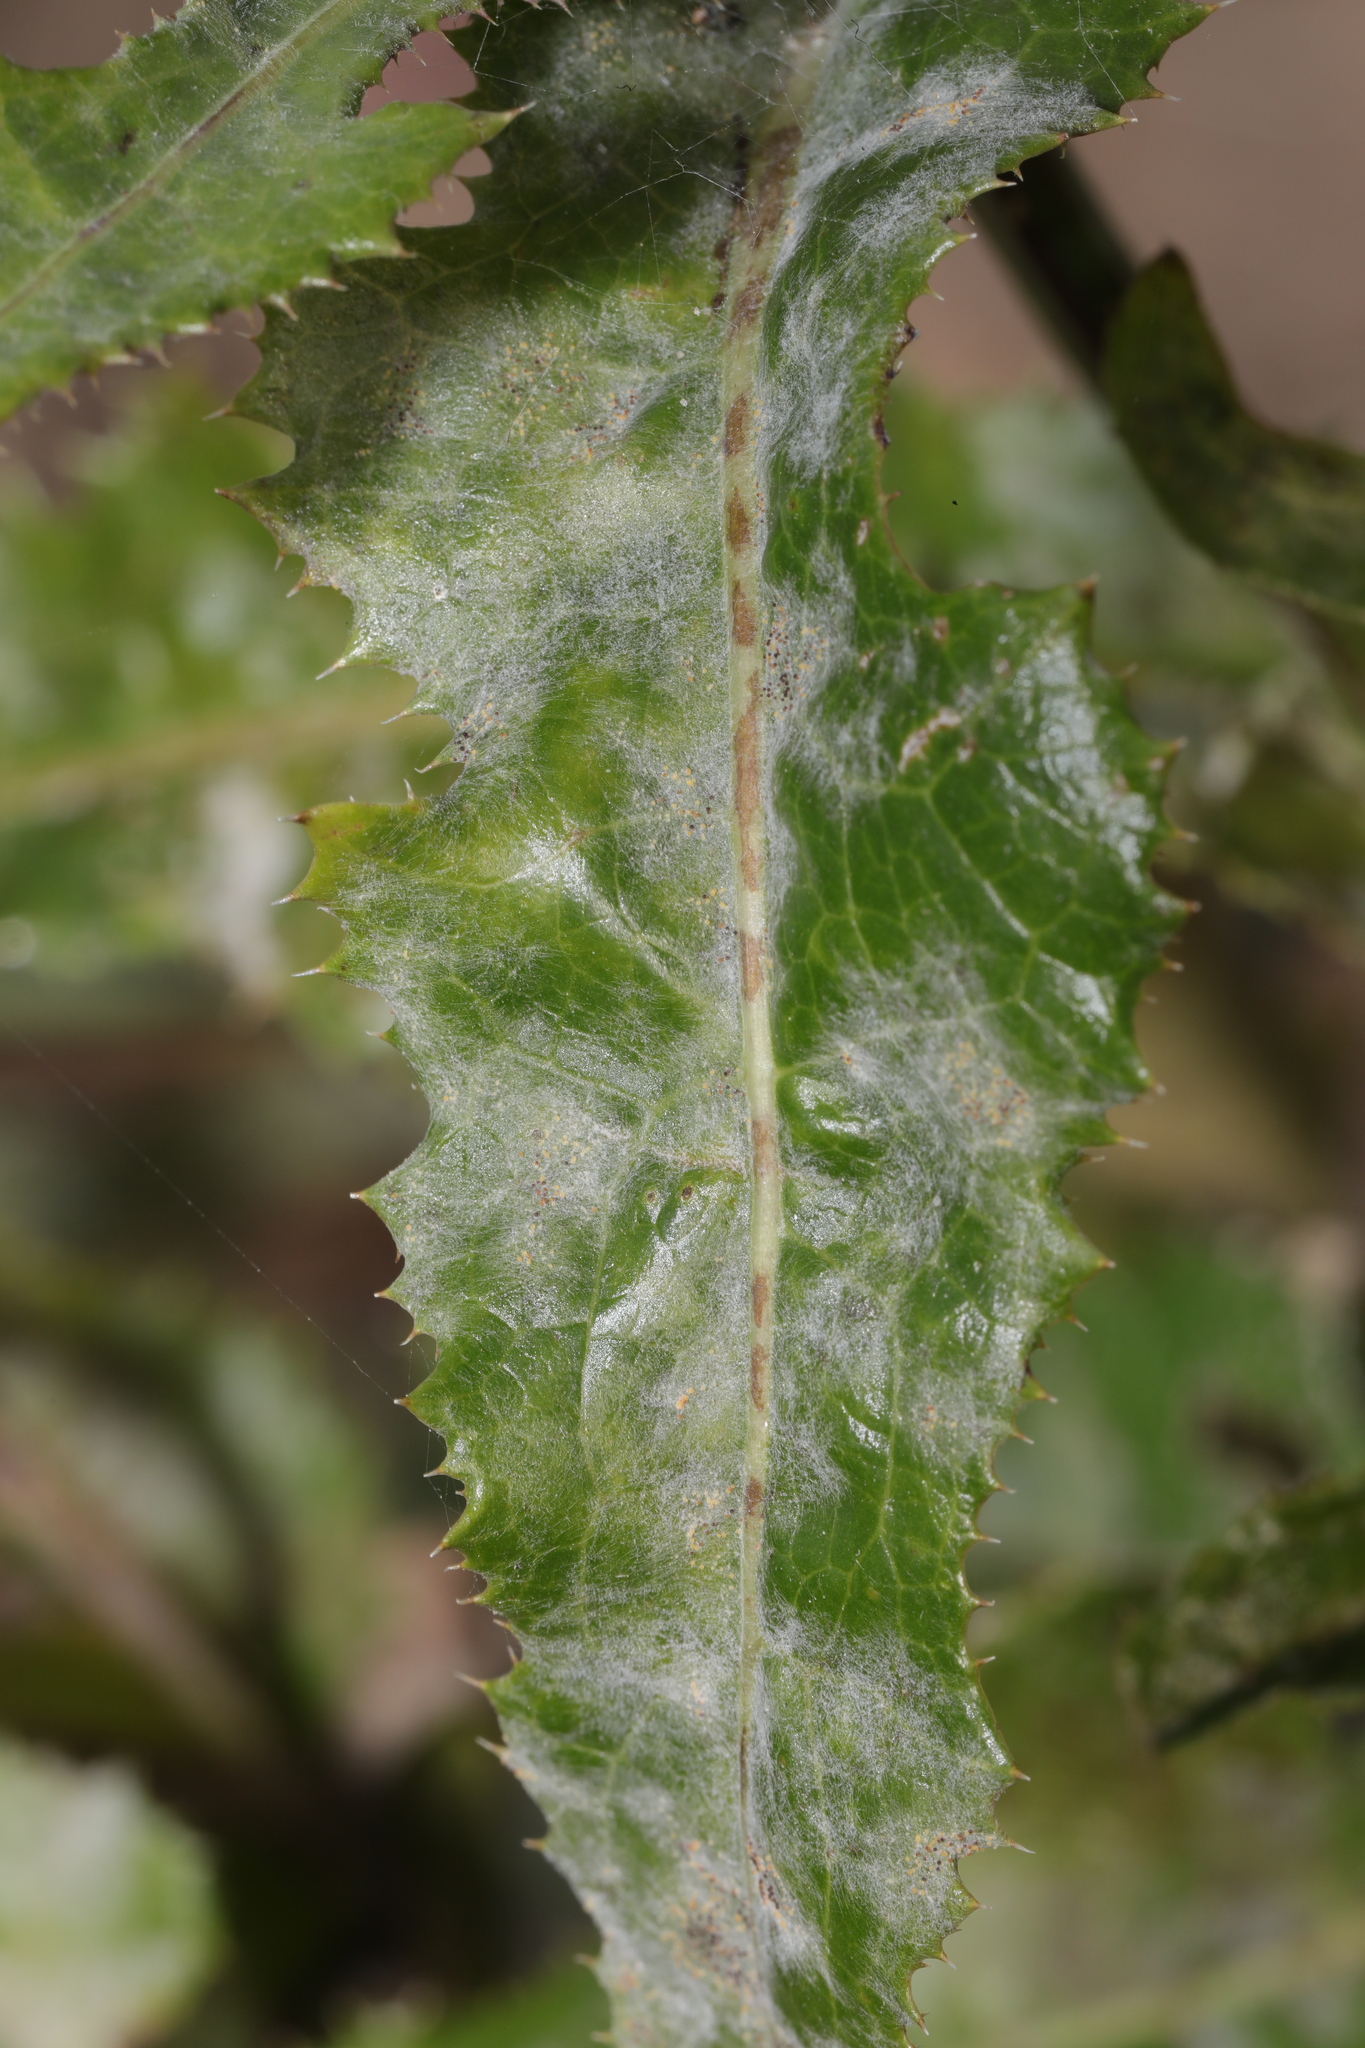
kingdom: Fungi
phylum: Ascomycota
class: Leotiomycetes
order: Helotiales
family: Erysiphaceae
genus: Golovinomyces
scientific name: Golovinomyces sonchicola
